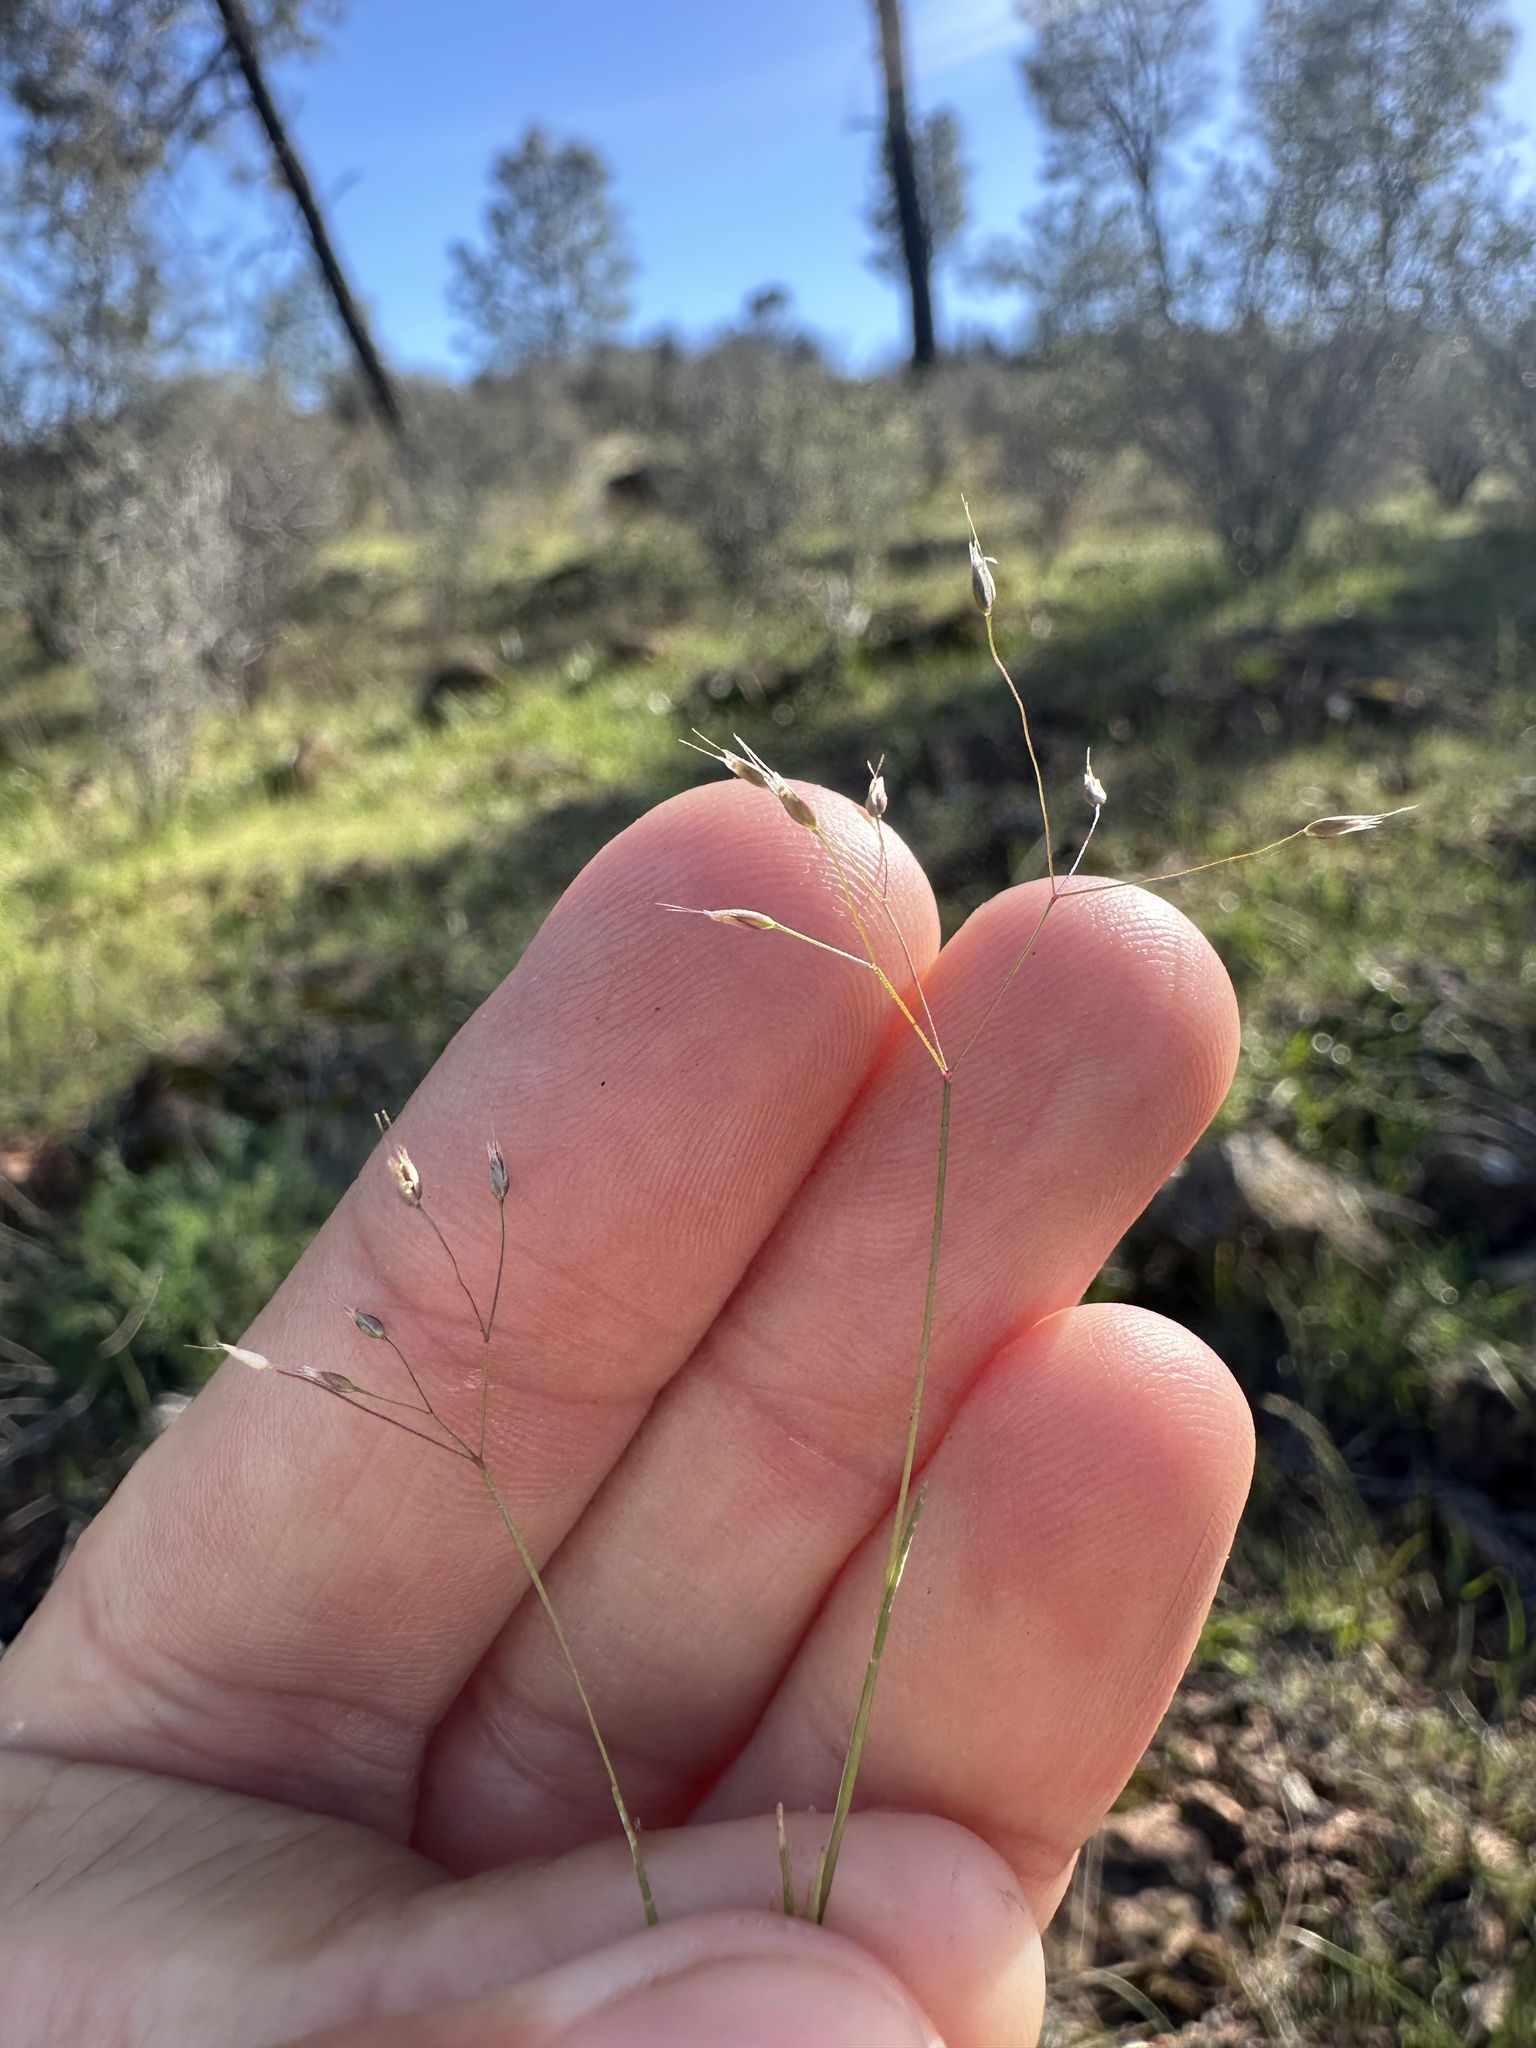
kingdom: Plantae
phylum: Tracheophyta
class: Liliopsida
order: Poales
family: Poaceae
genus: Aira
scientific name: Aira caryophyllea
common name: Silver hairgrass
